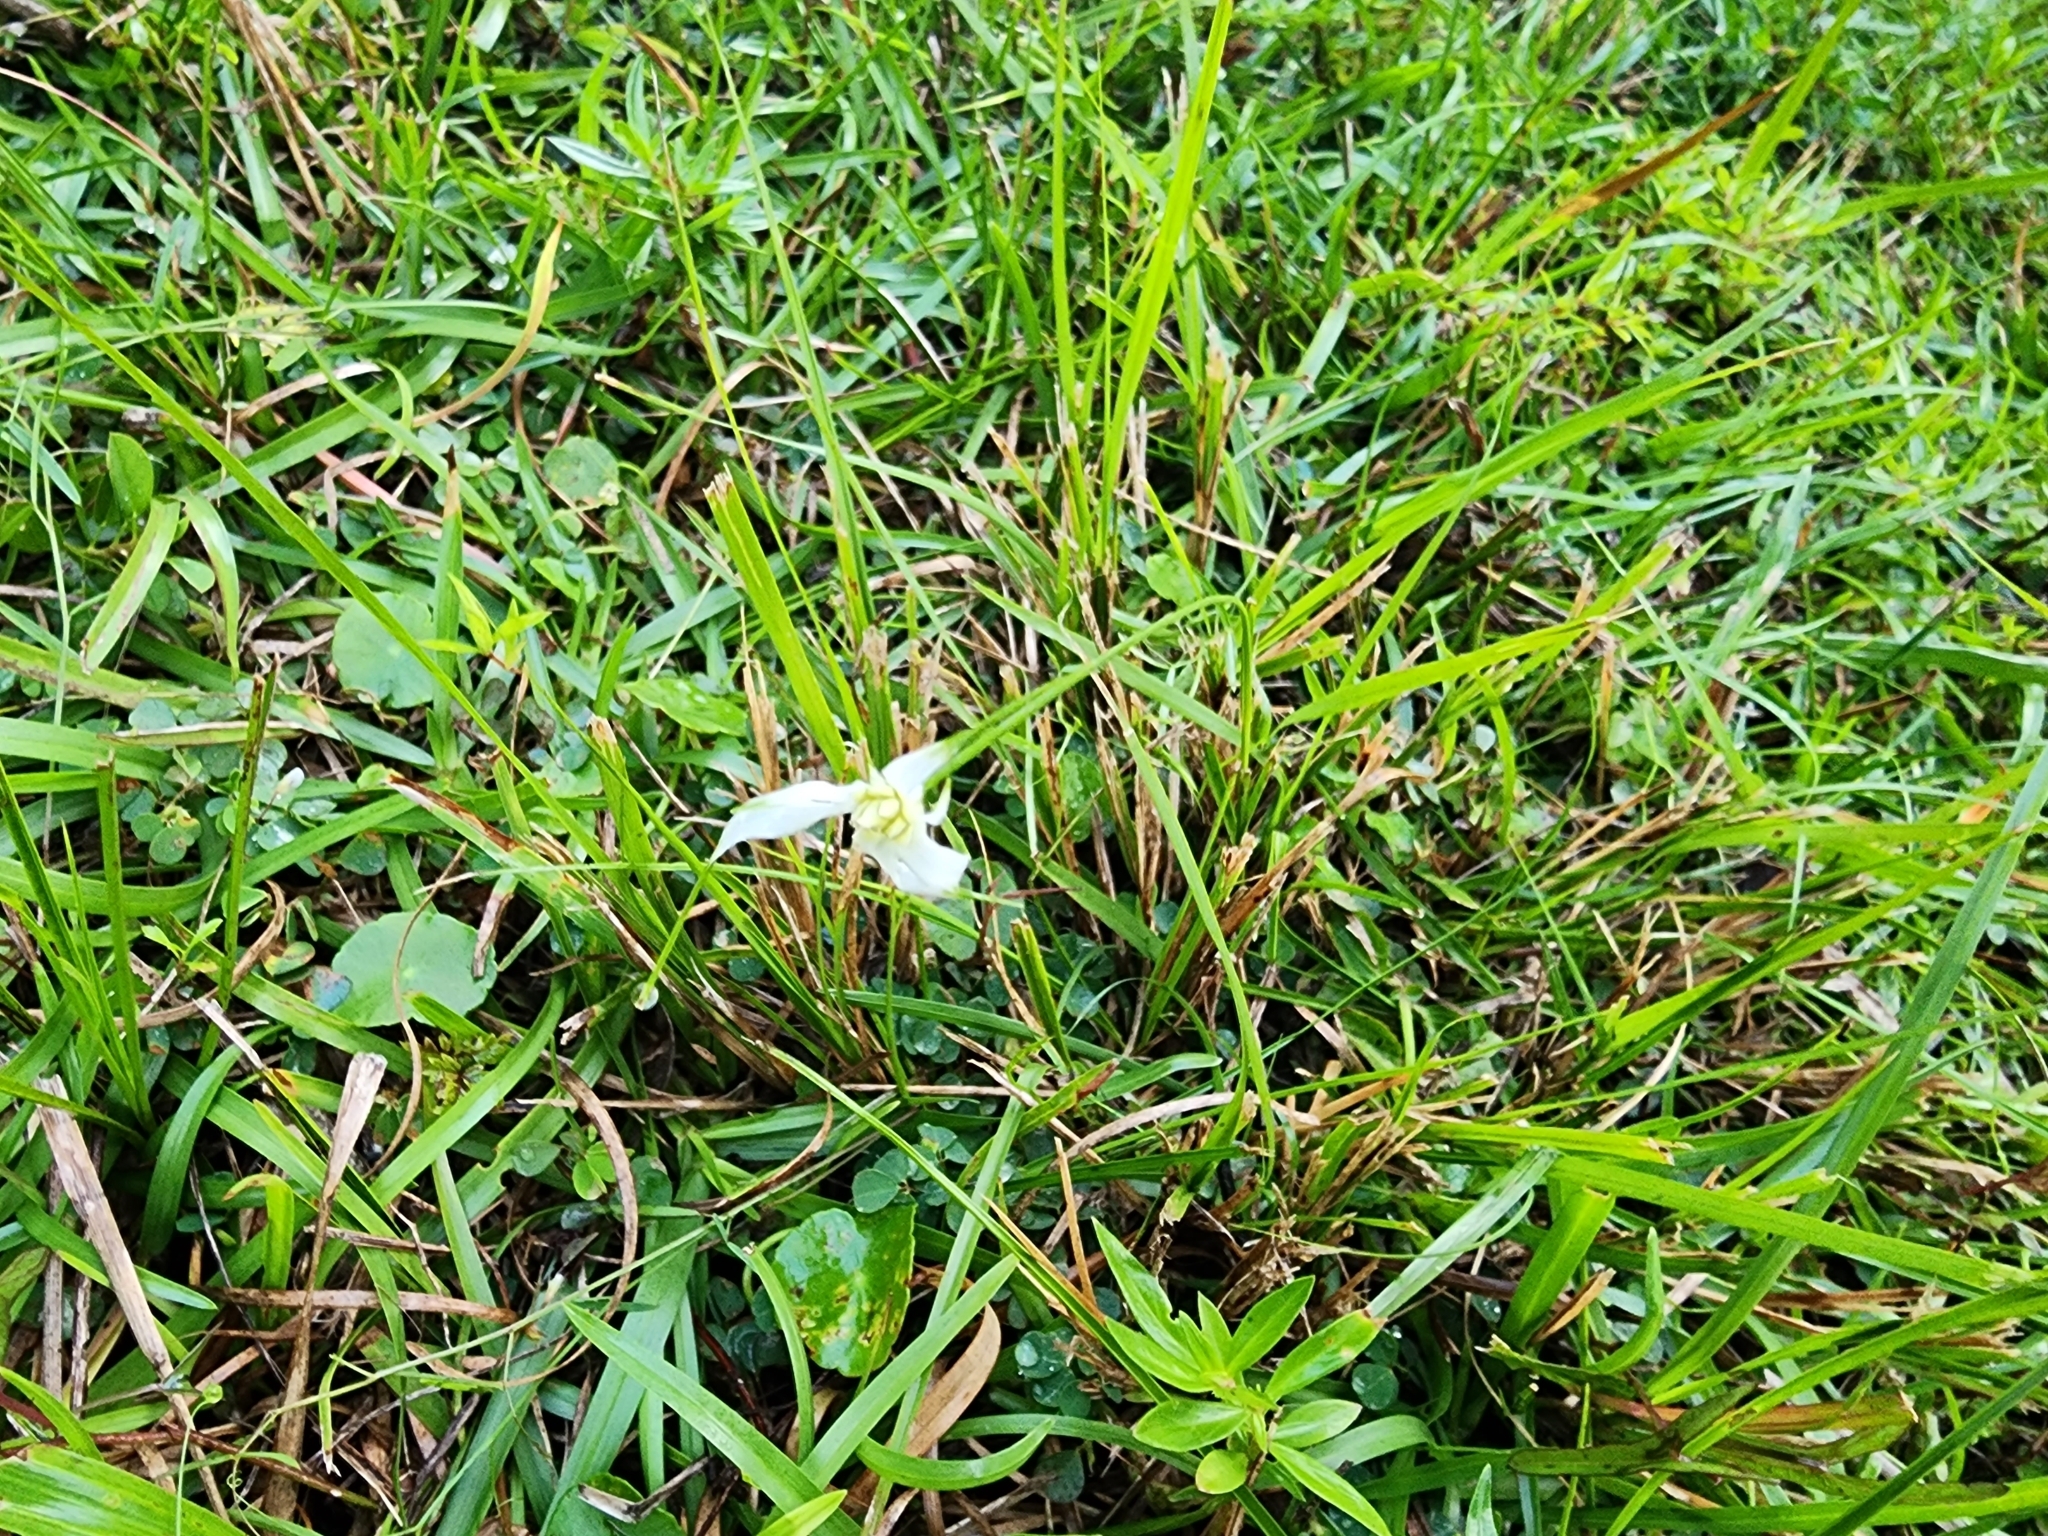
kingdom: Plantae
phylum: Tracheophyta
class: Liliopsida
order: Poales
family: Cyperaceae
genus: Rhynchospora
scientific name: Rhynchospora colorata
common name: Star sedge
